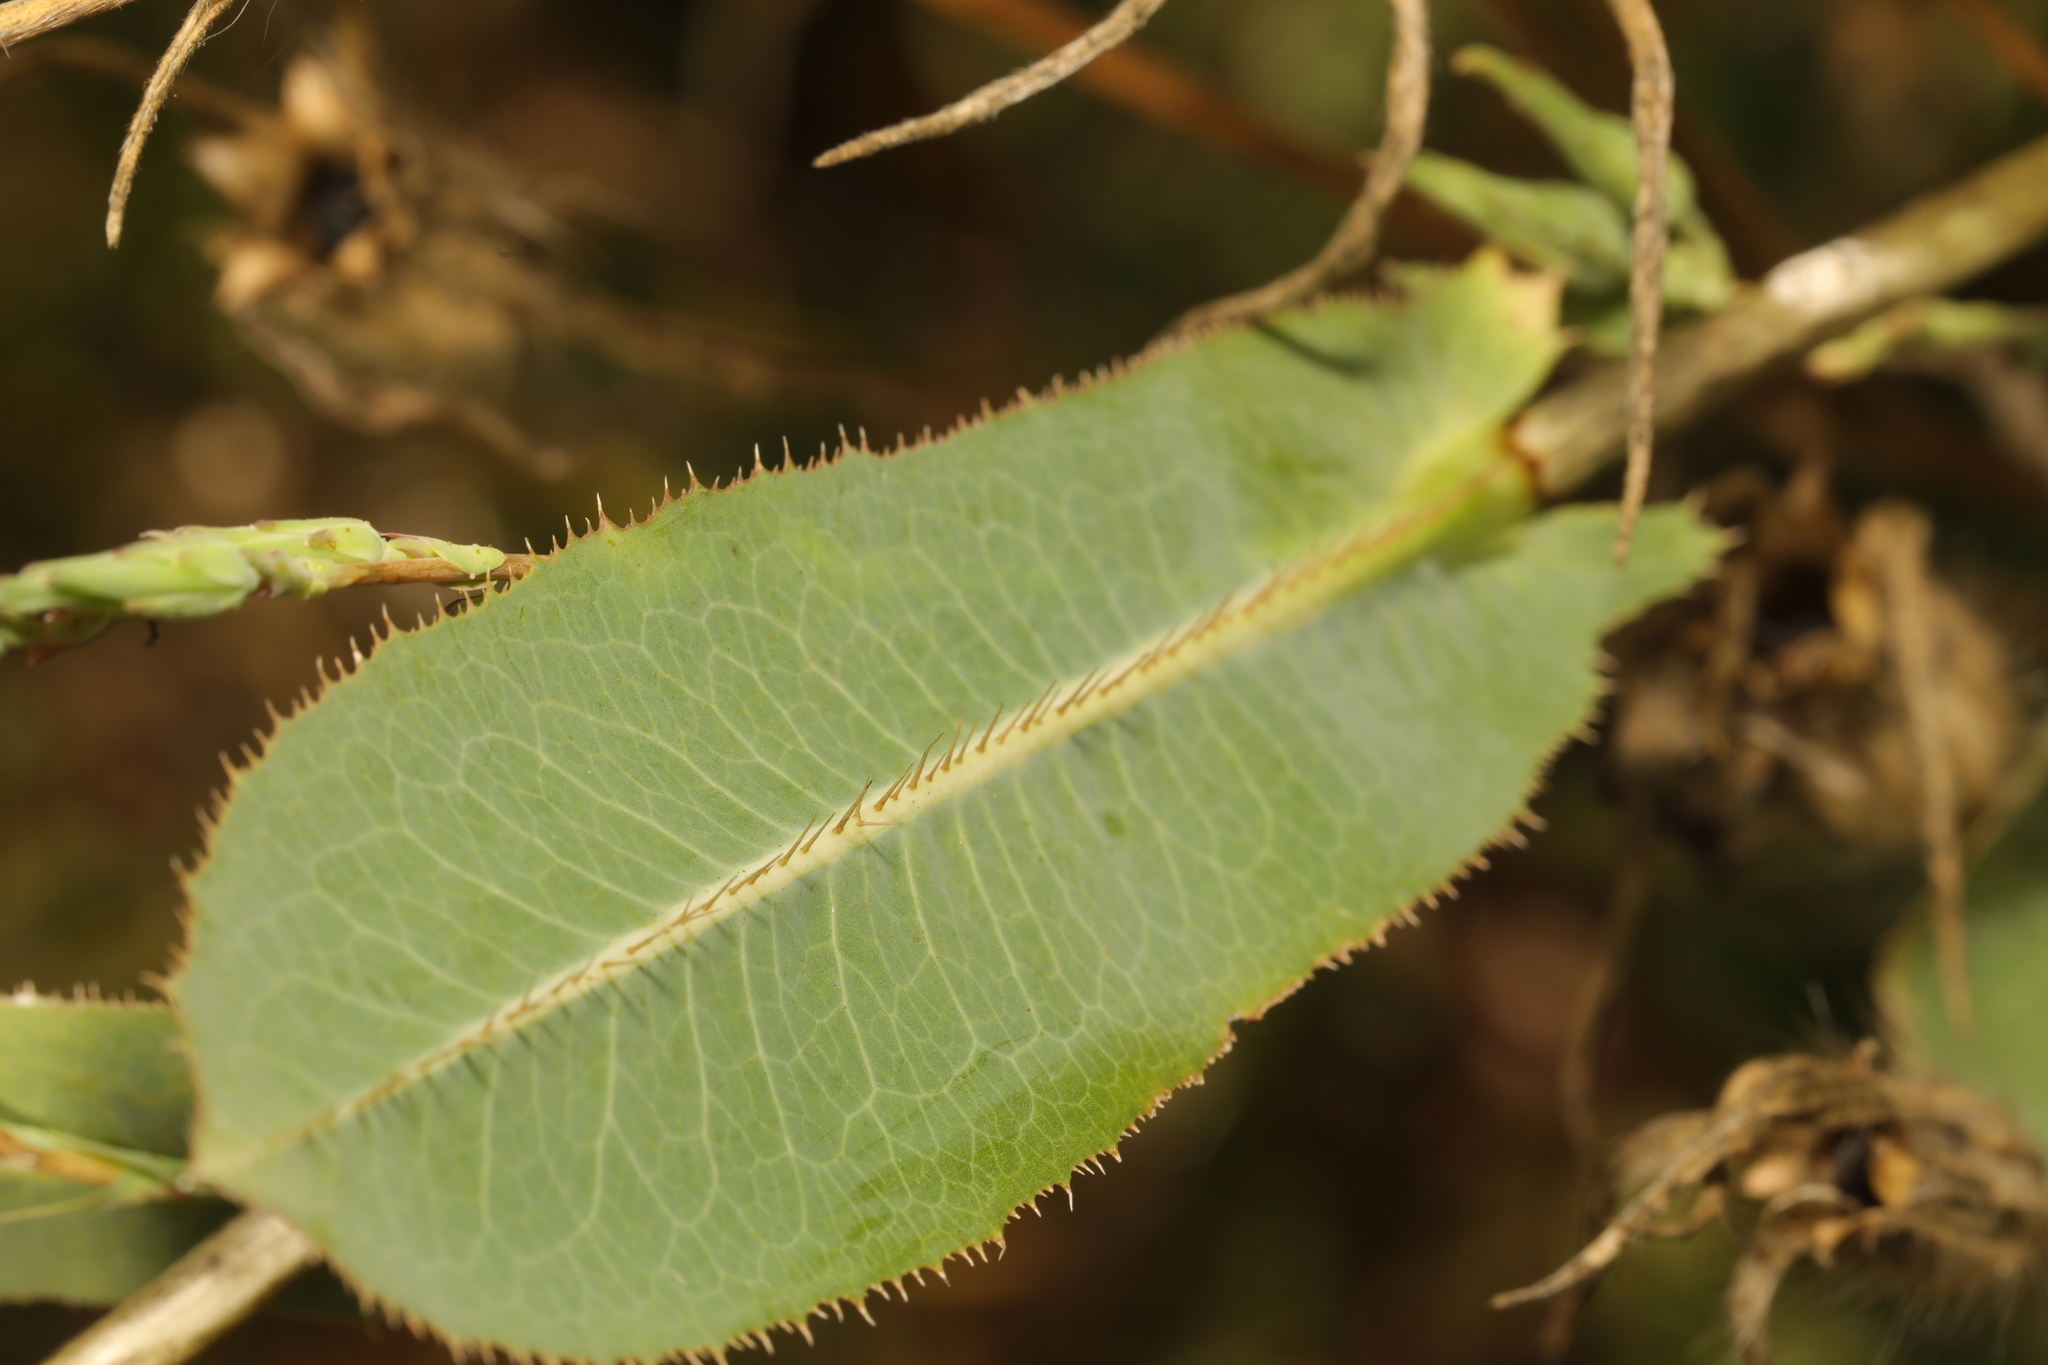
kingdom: Plantae
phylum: Tracheophyta
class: Magnoliopsida
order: Asterales
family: Asteraceae
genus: Lactuca
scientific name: Lactuca serriola
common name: Prickly lettuce
